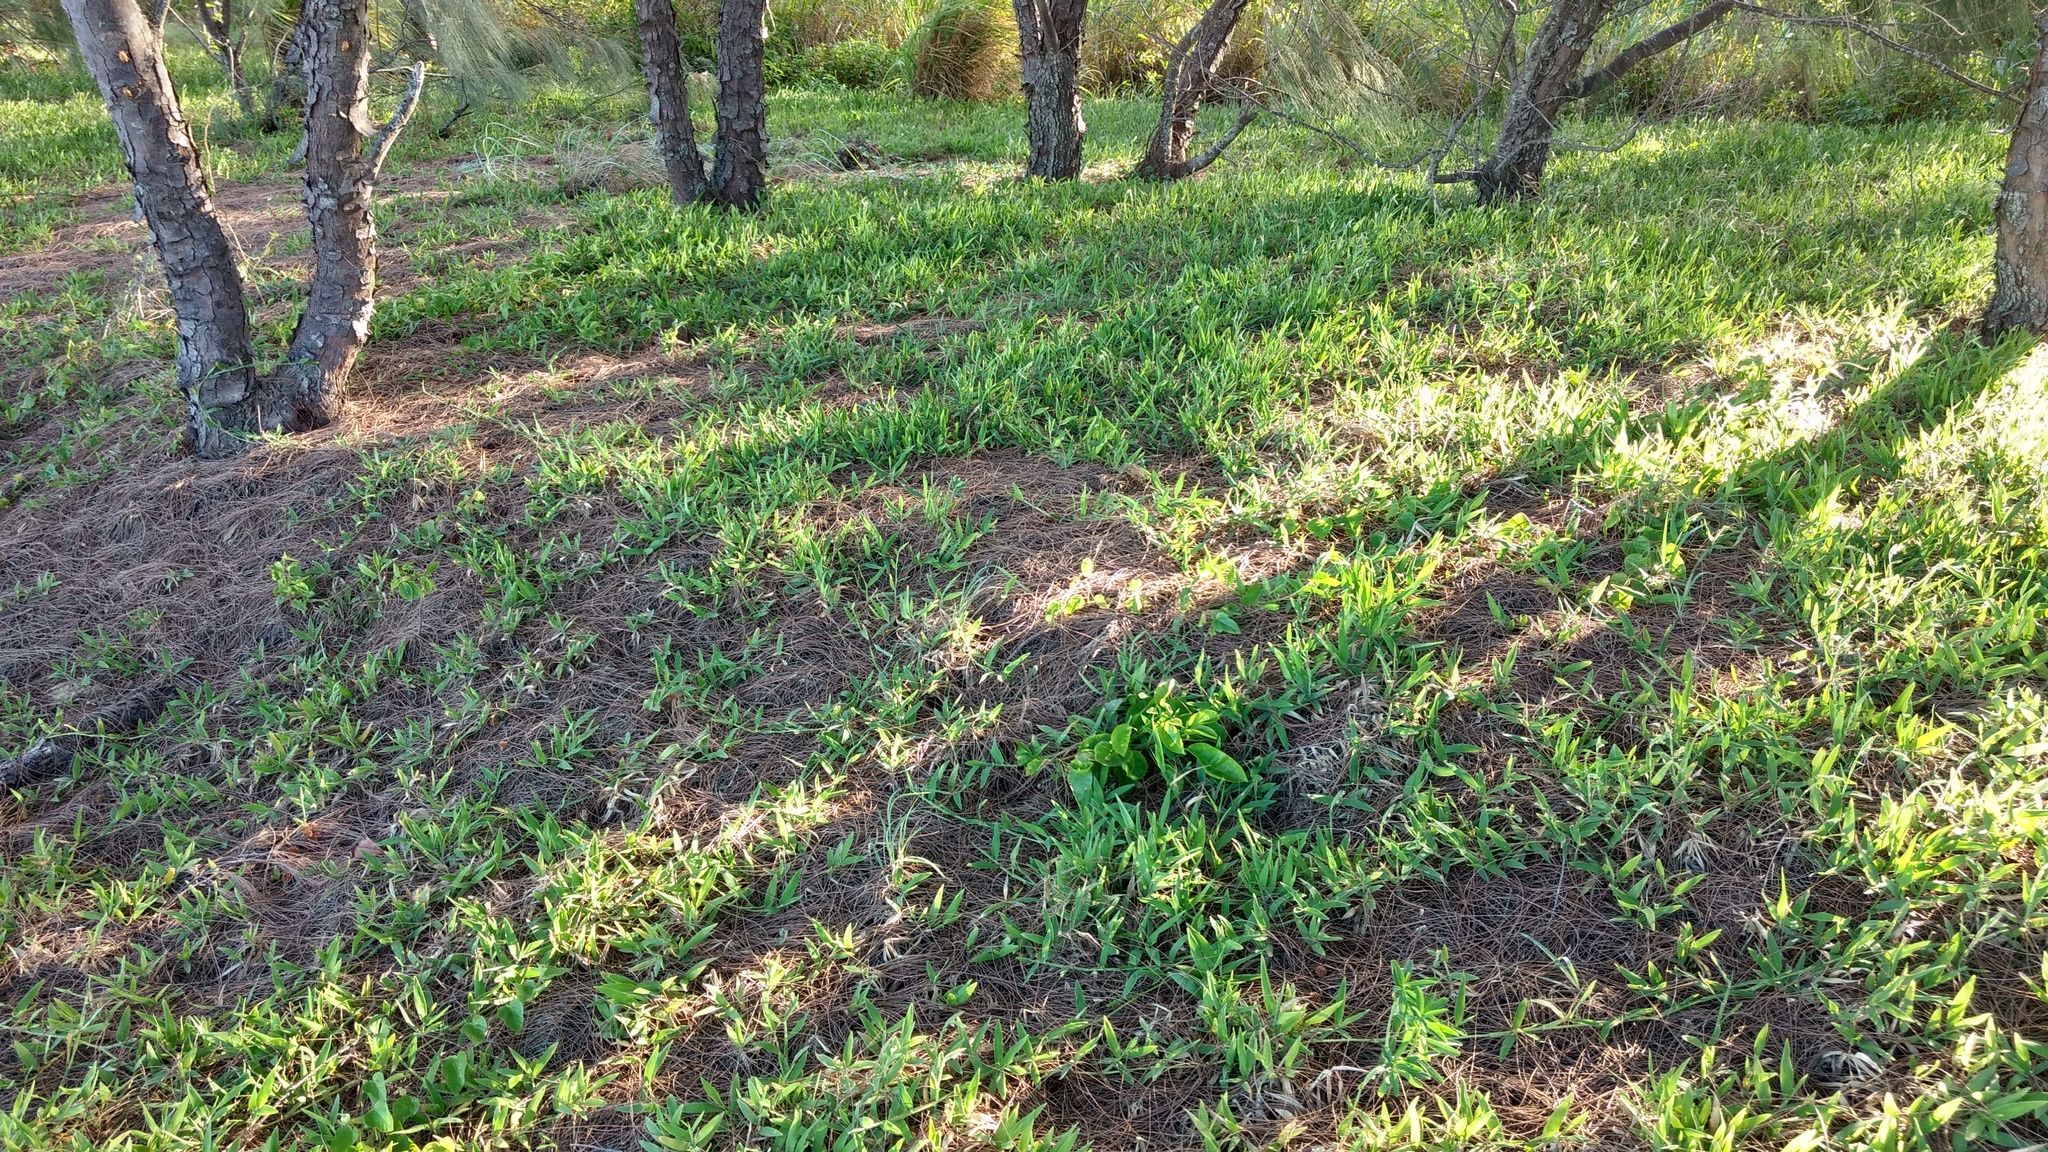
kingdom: Plantae
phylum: Tracheophyta
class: Liliopsida
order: Poales
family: Poaceae
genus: Thuarea
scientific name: Thuarea involuta
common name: Tropical beach grass
